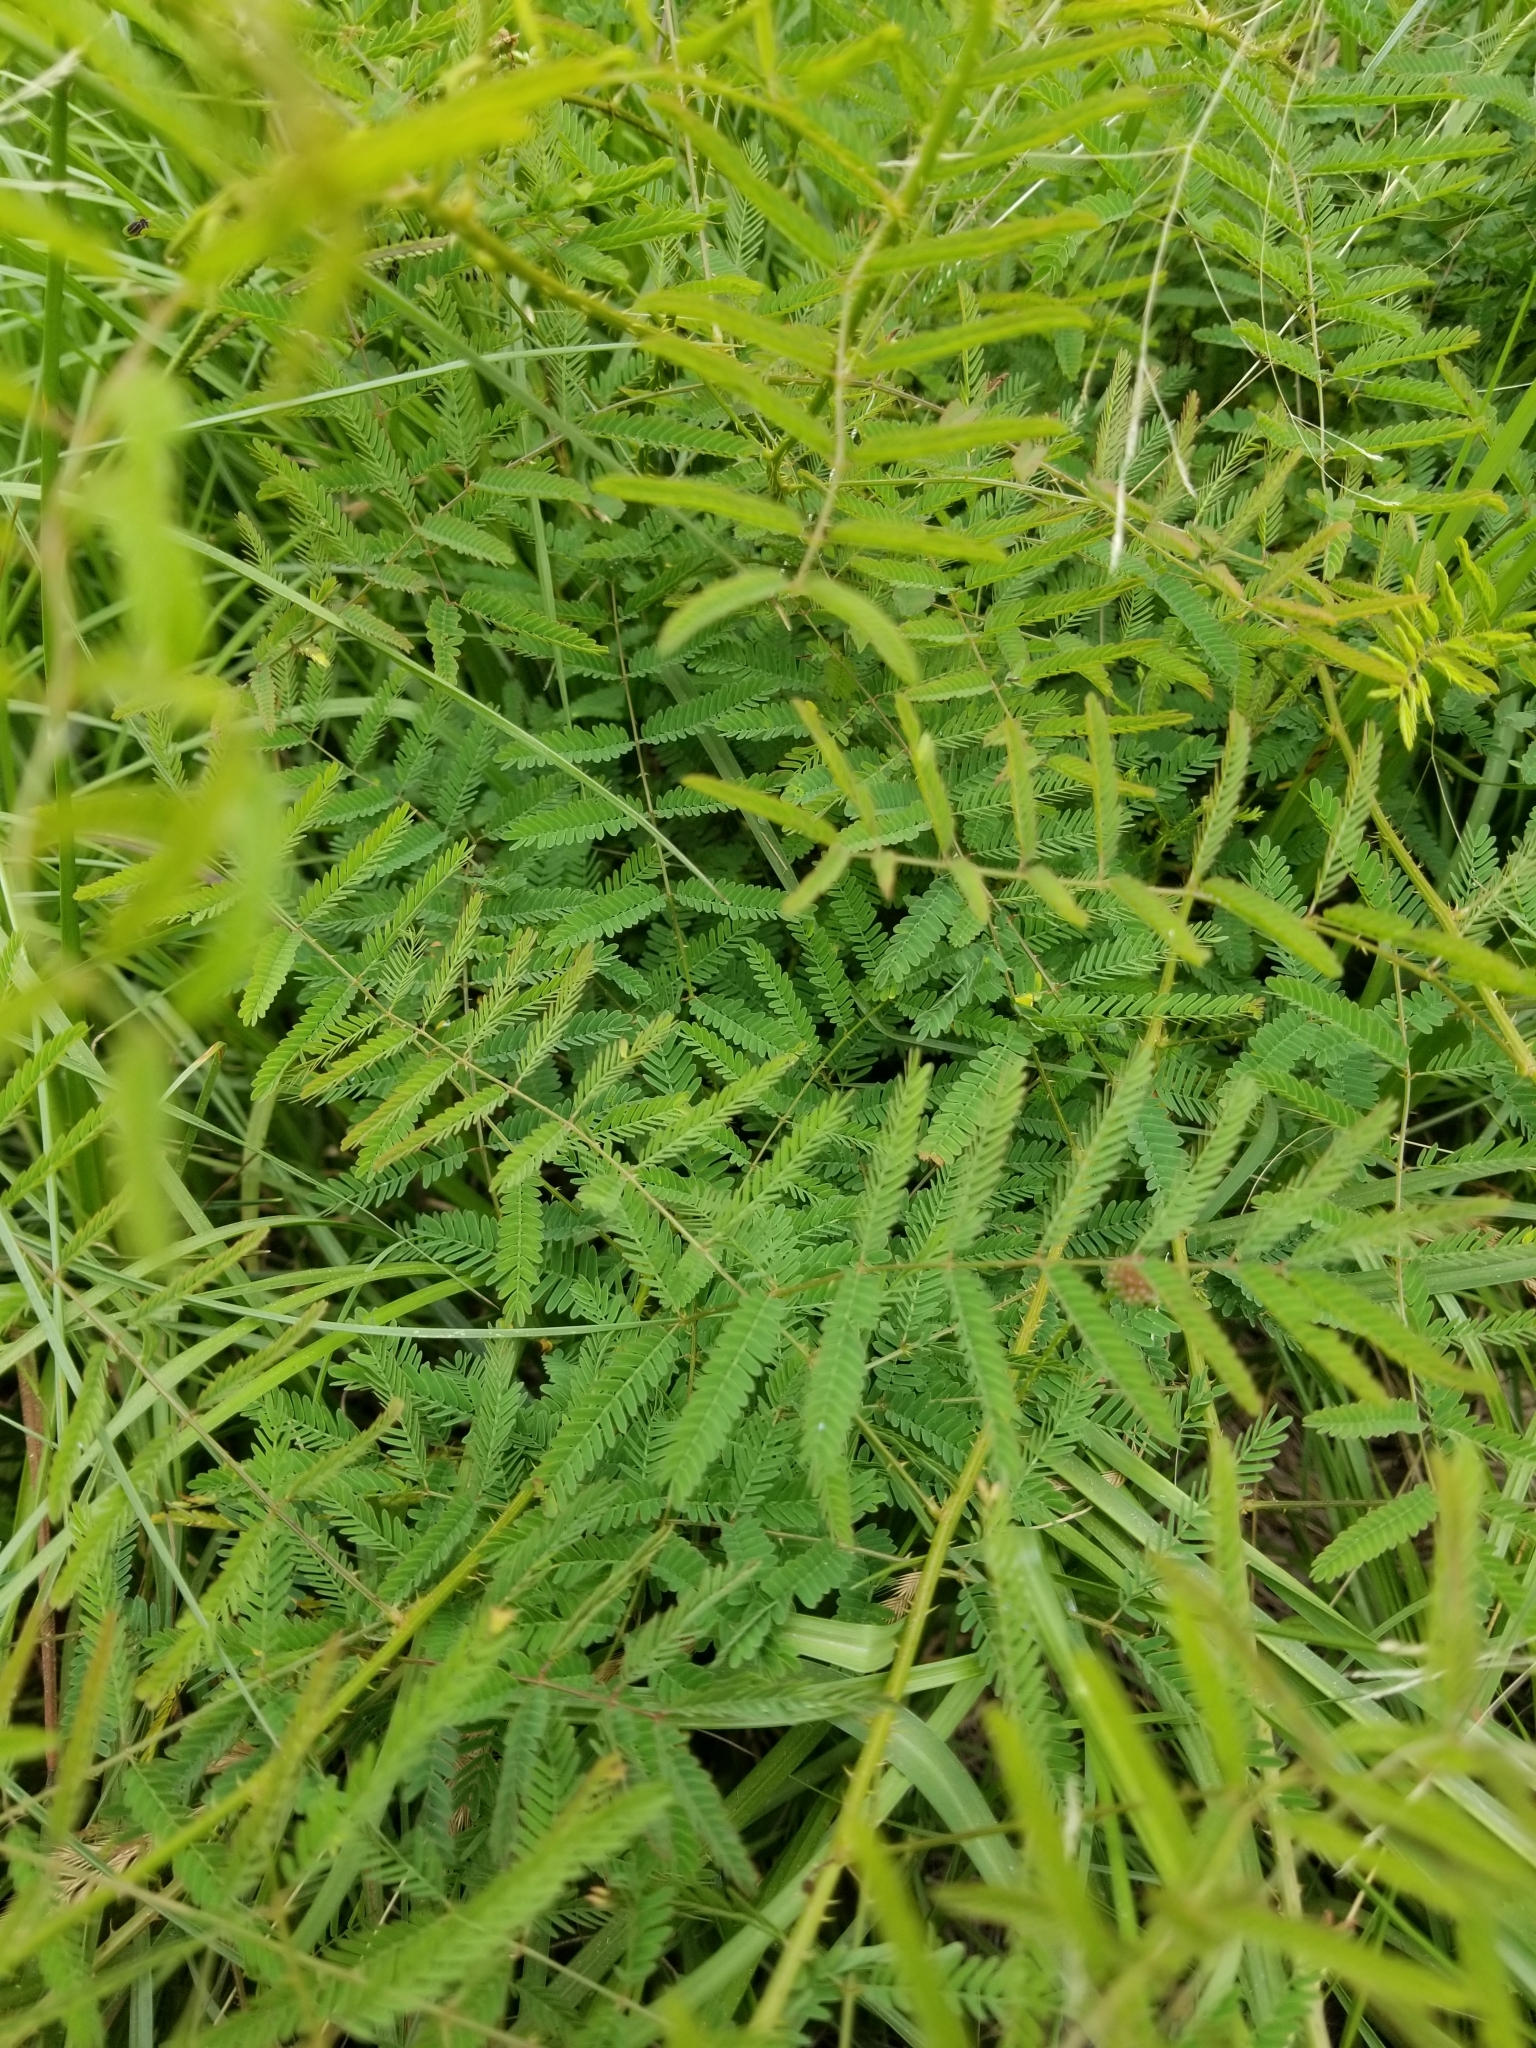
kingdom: Plantae
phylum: Tracheophyta
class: Magnoliopsida
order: Fabales
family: Fabaceae
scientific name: Fabaceae
